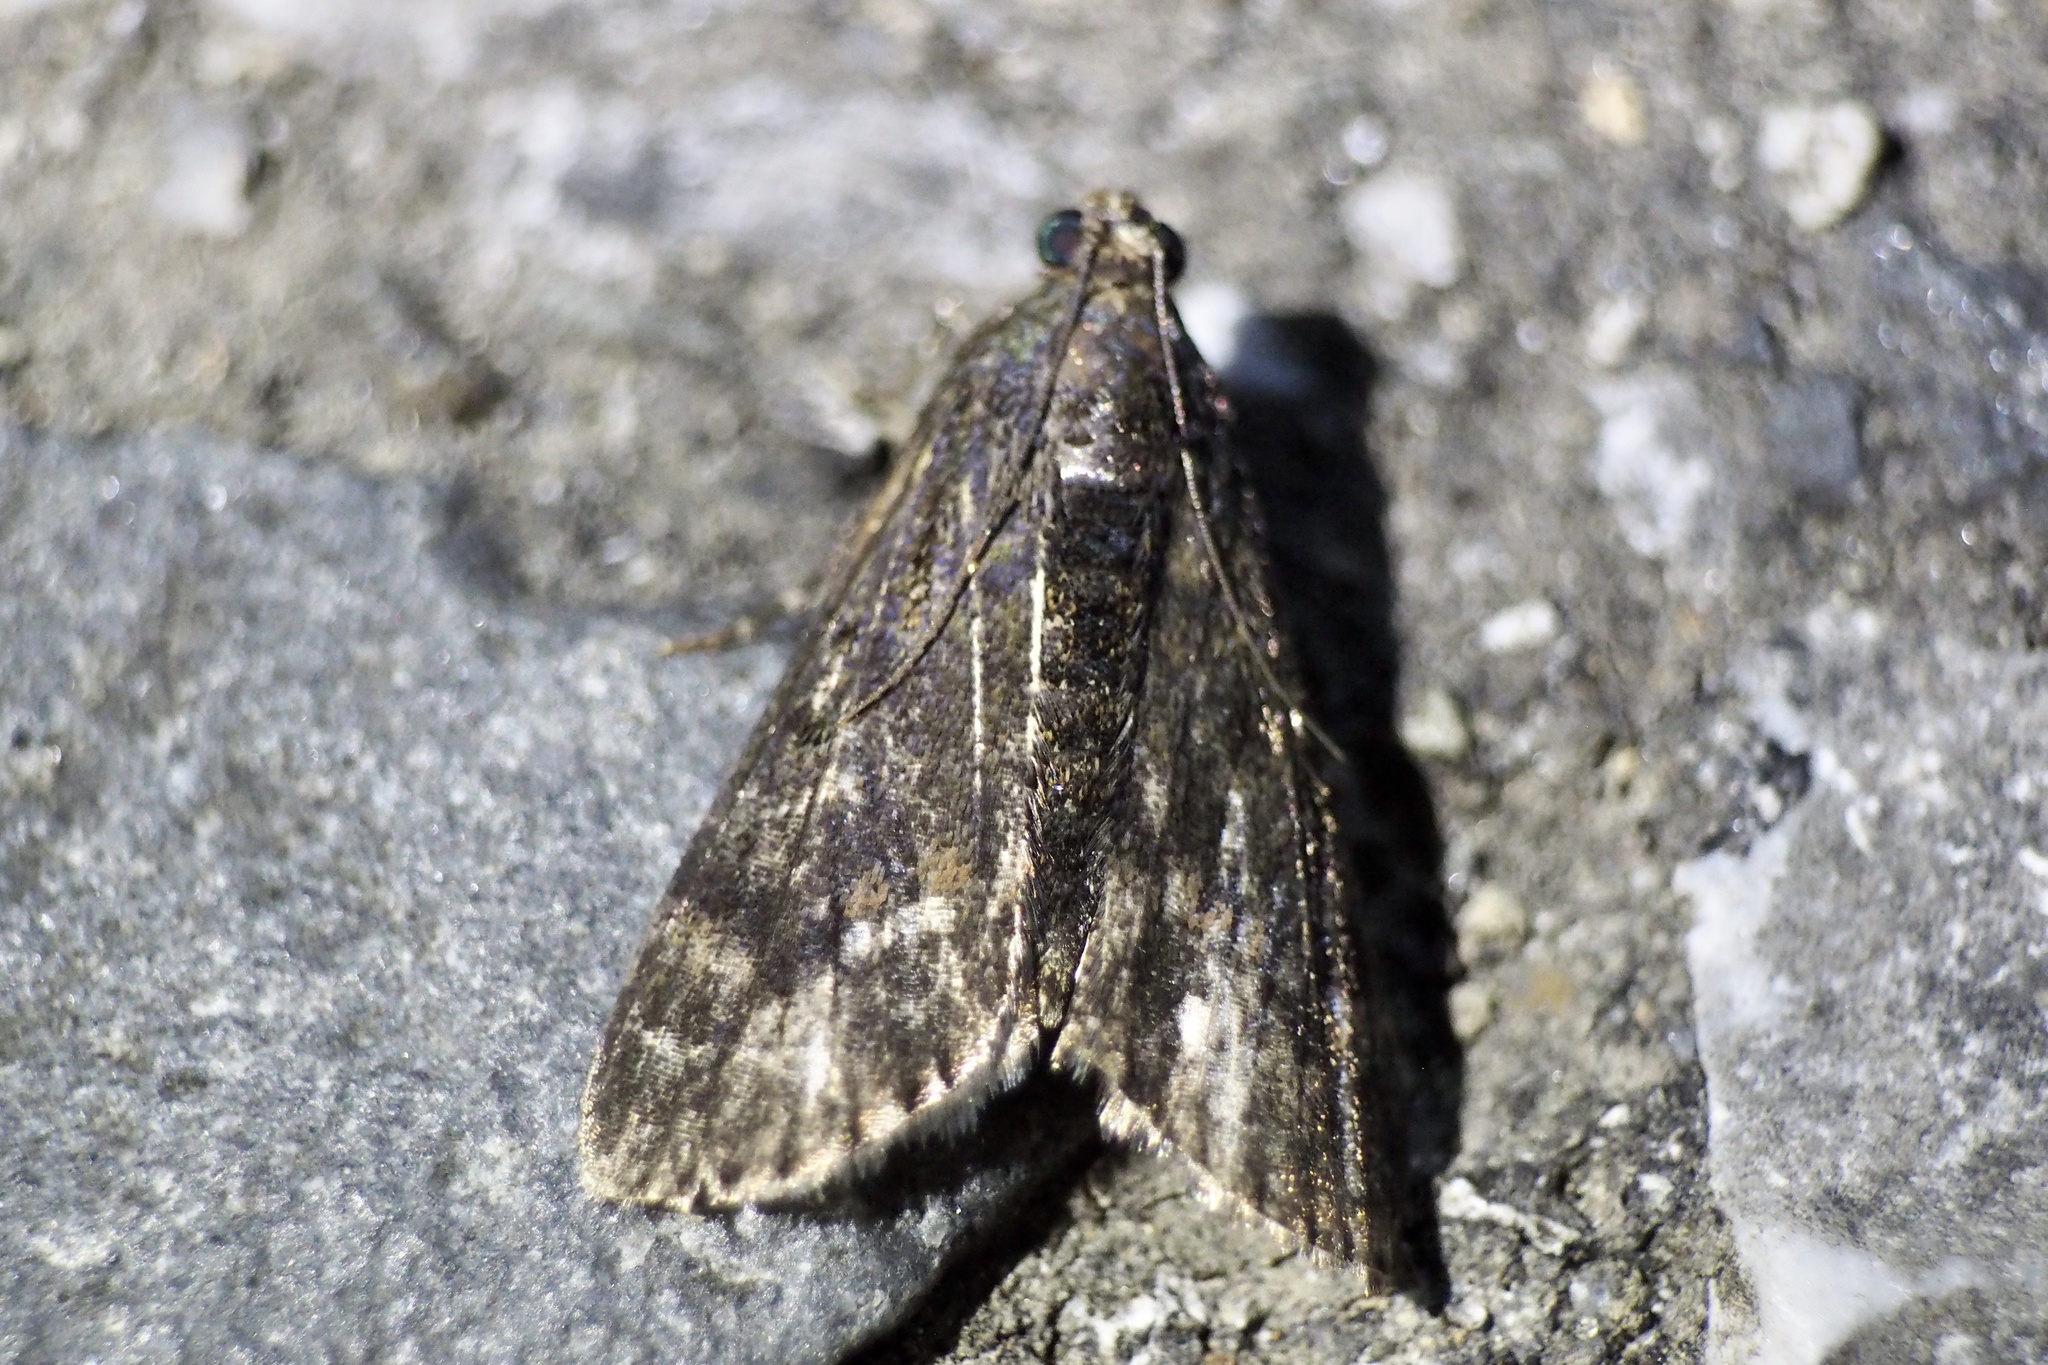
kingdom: Animalia
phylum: Arthropoda
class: Insecta
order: Lepidoptera
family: Pyralidae
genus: Teliphasa
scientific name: Teliphasa elegans
